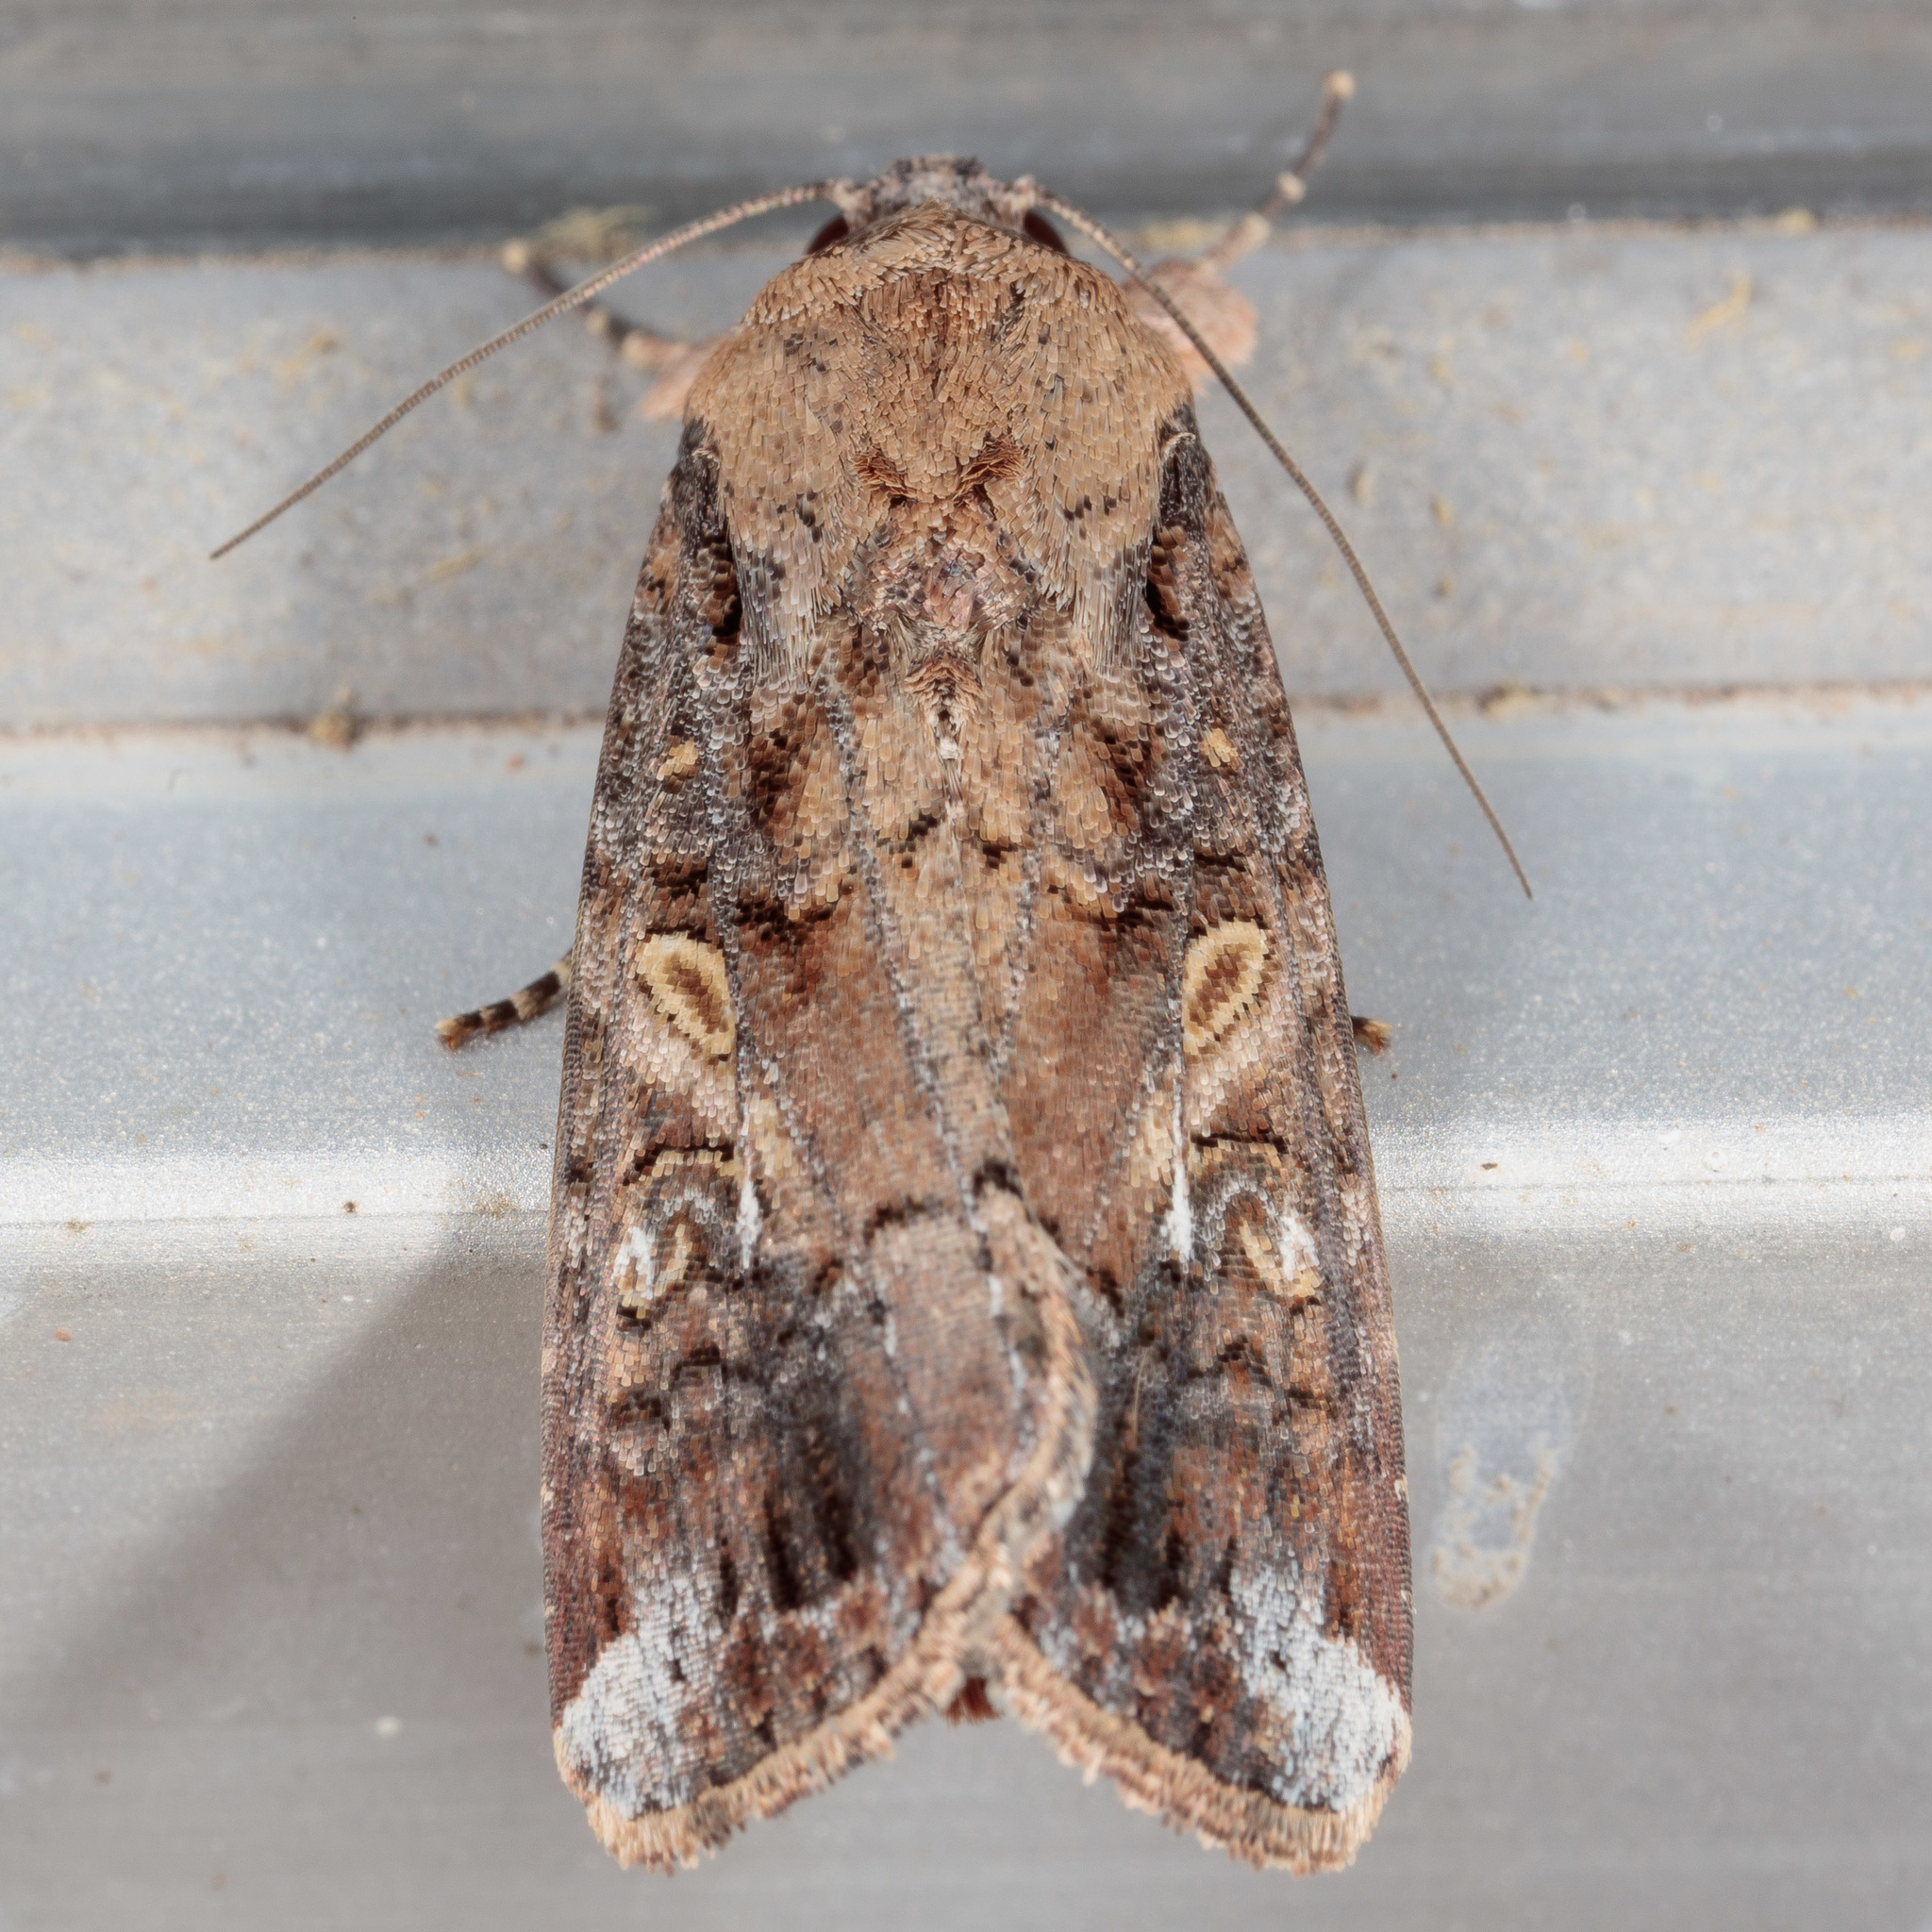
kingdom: Animalia
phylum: Arthropoda
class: Insecta
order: Lepidoptera
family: Noctuidae
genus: Spodoptera
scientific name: Spodoptera frugiperda
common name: Fall armyworm
